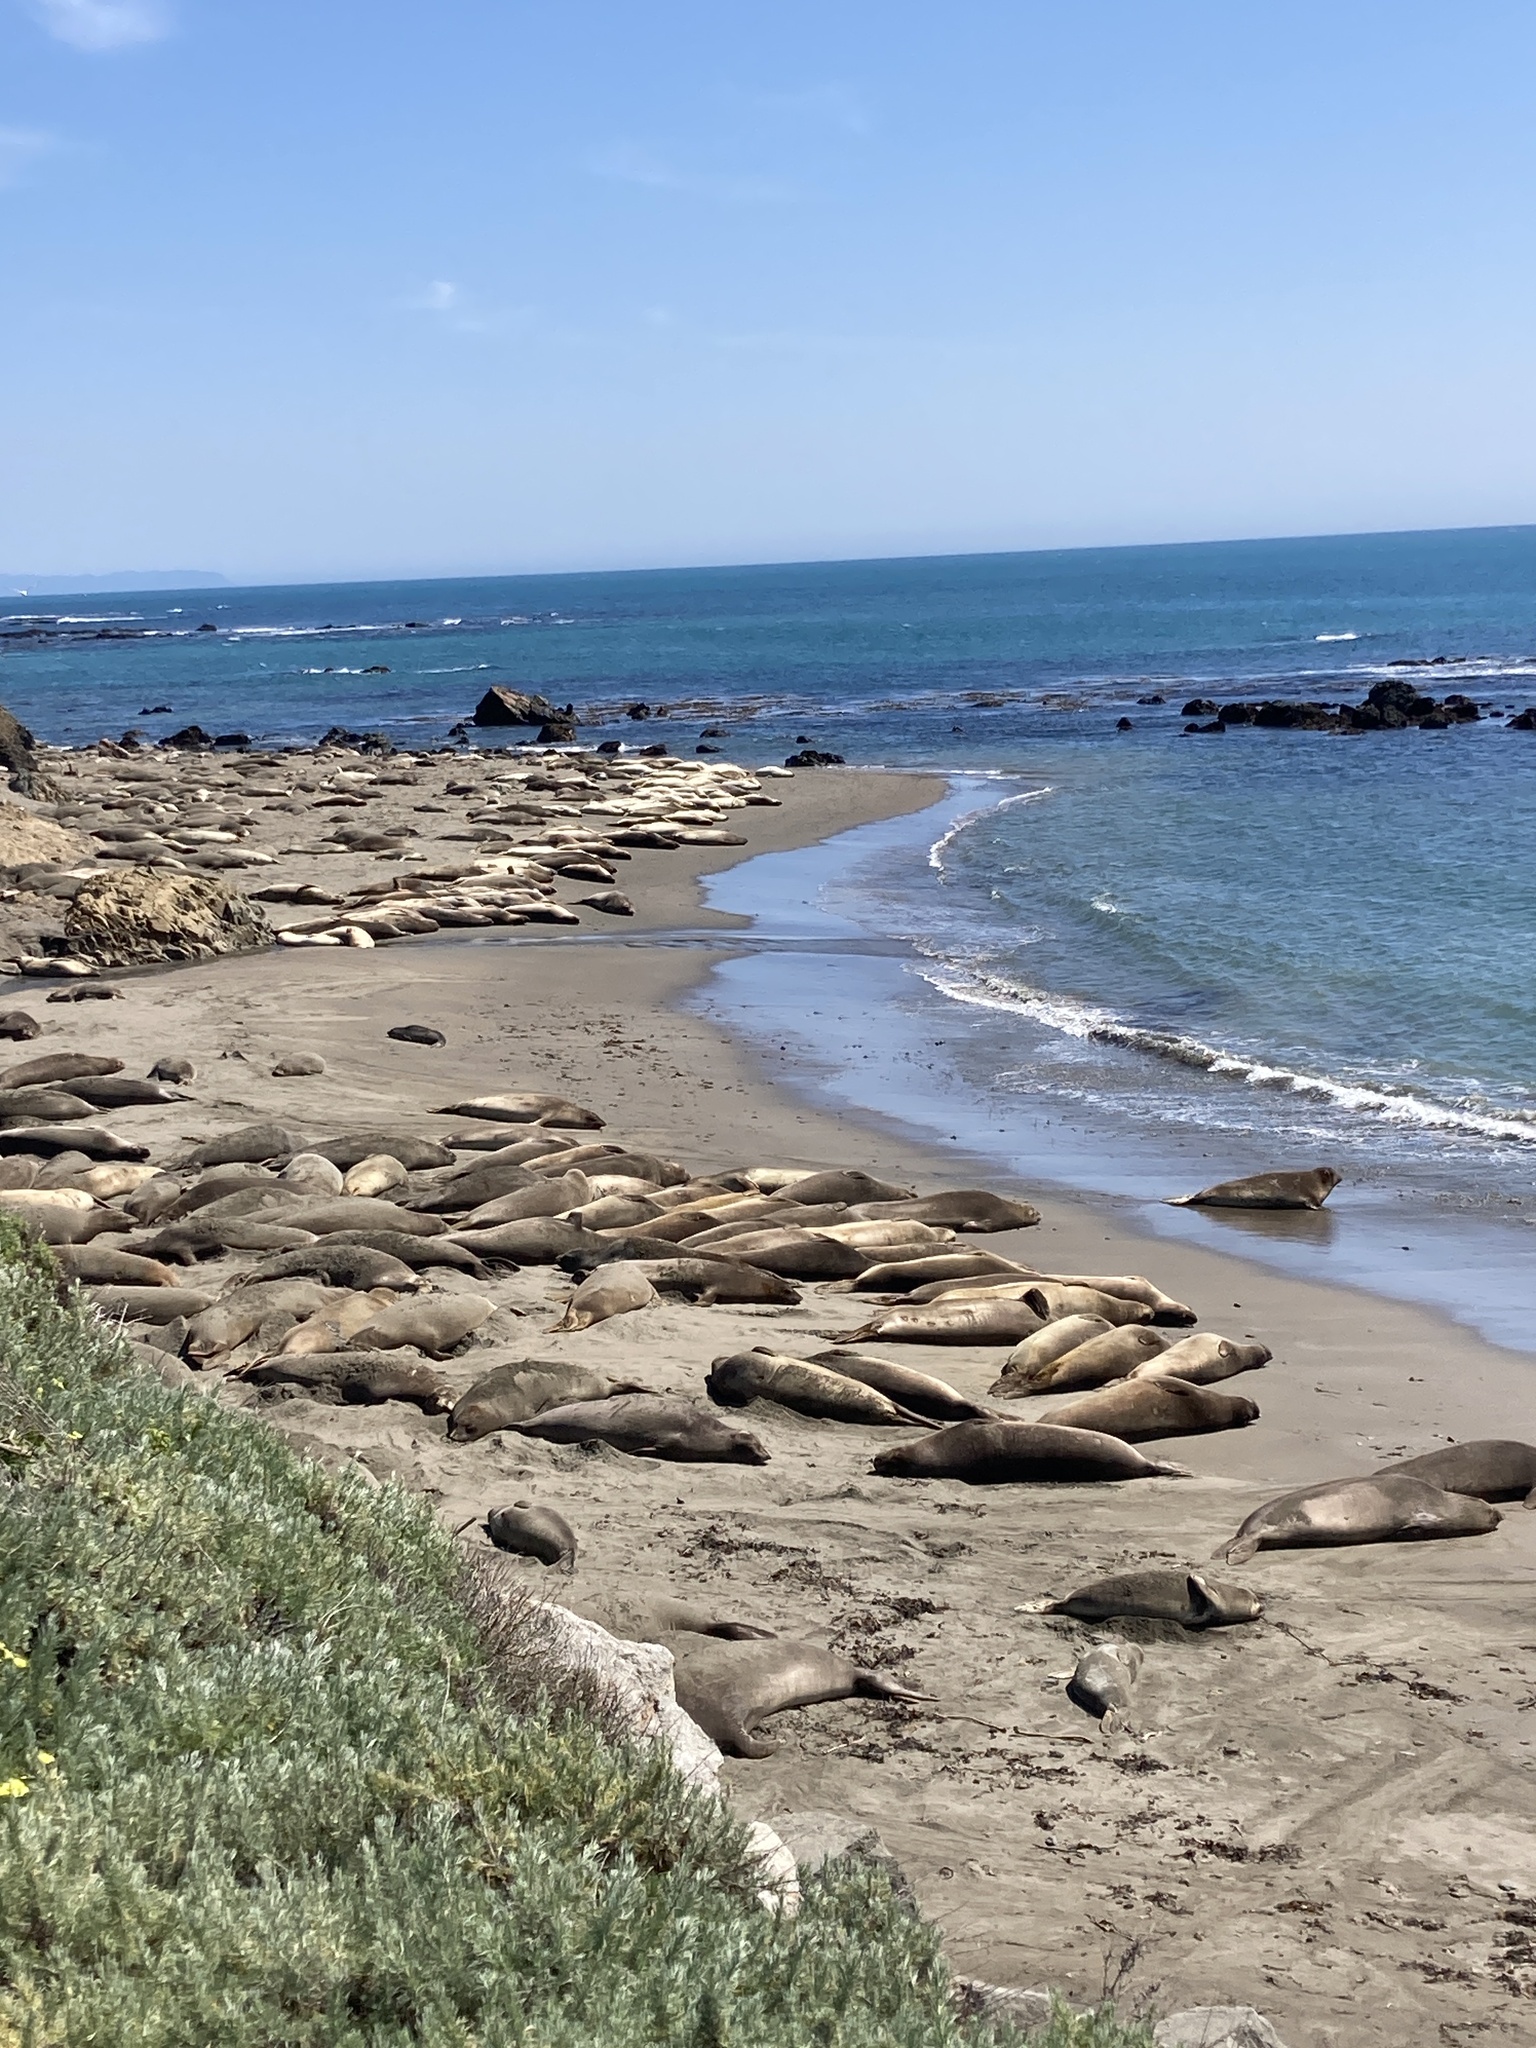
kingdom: Animalia
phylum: Chordata
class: Mammalia
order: Carnivora
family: Phocidae
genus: Mirounga
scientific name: Mirounga angustirostris
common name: Northern elephant seal
